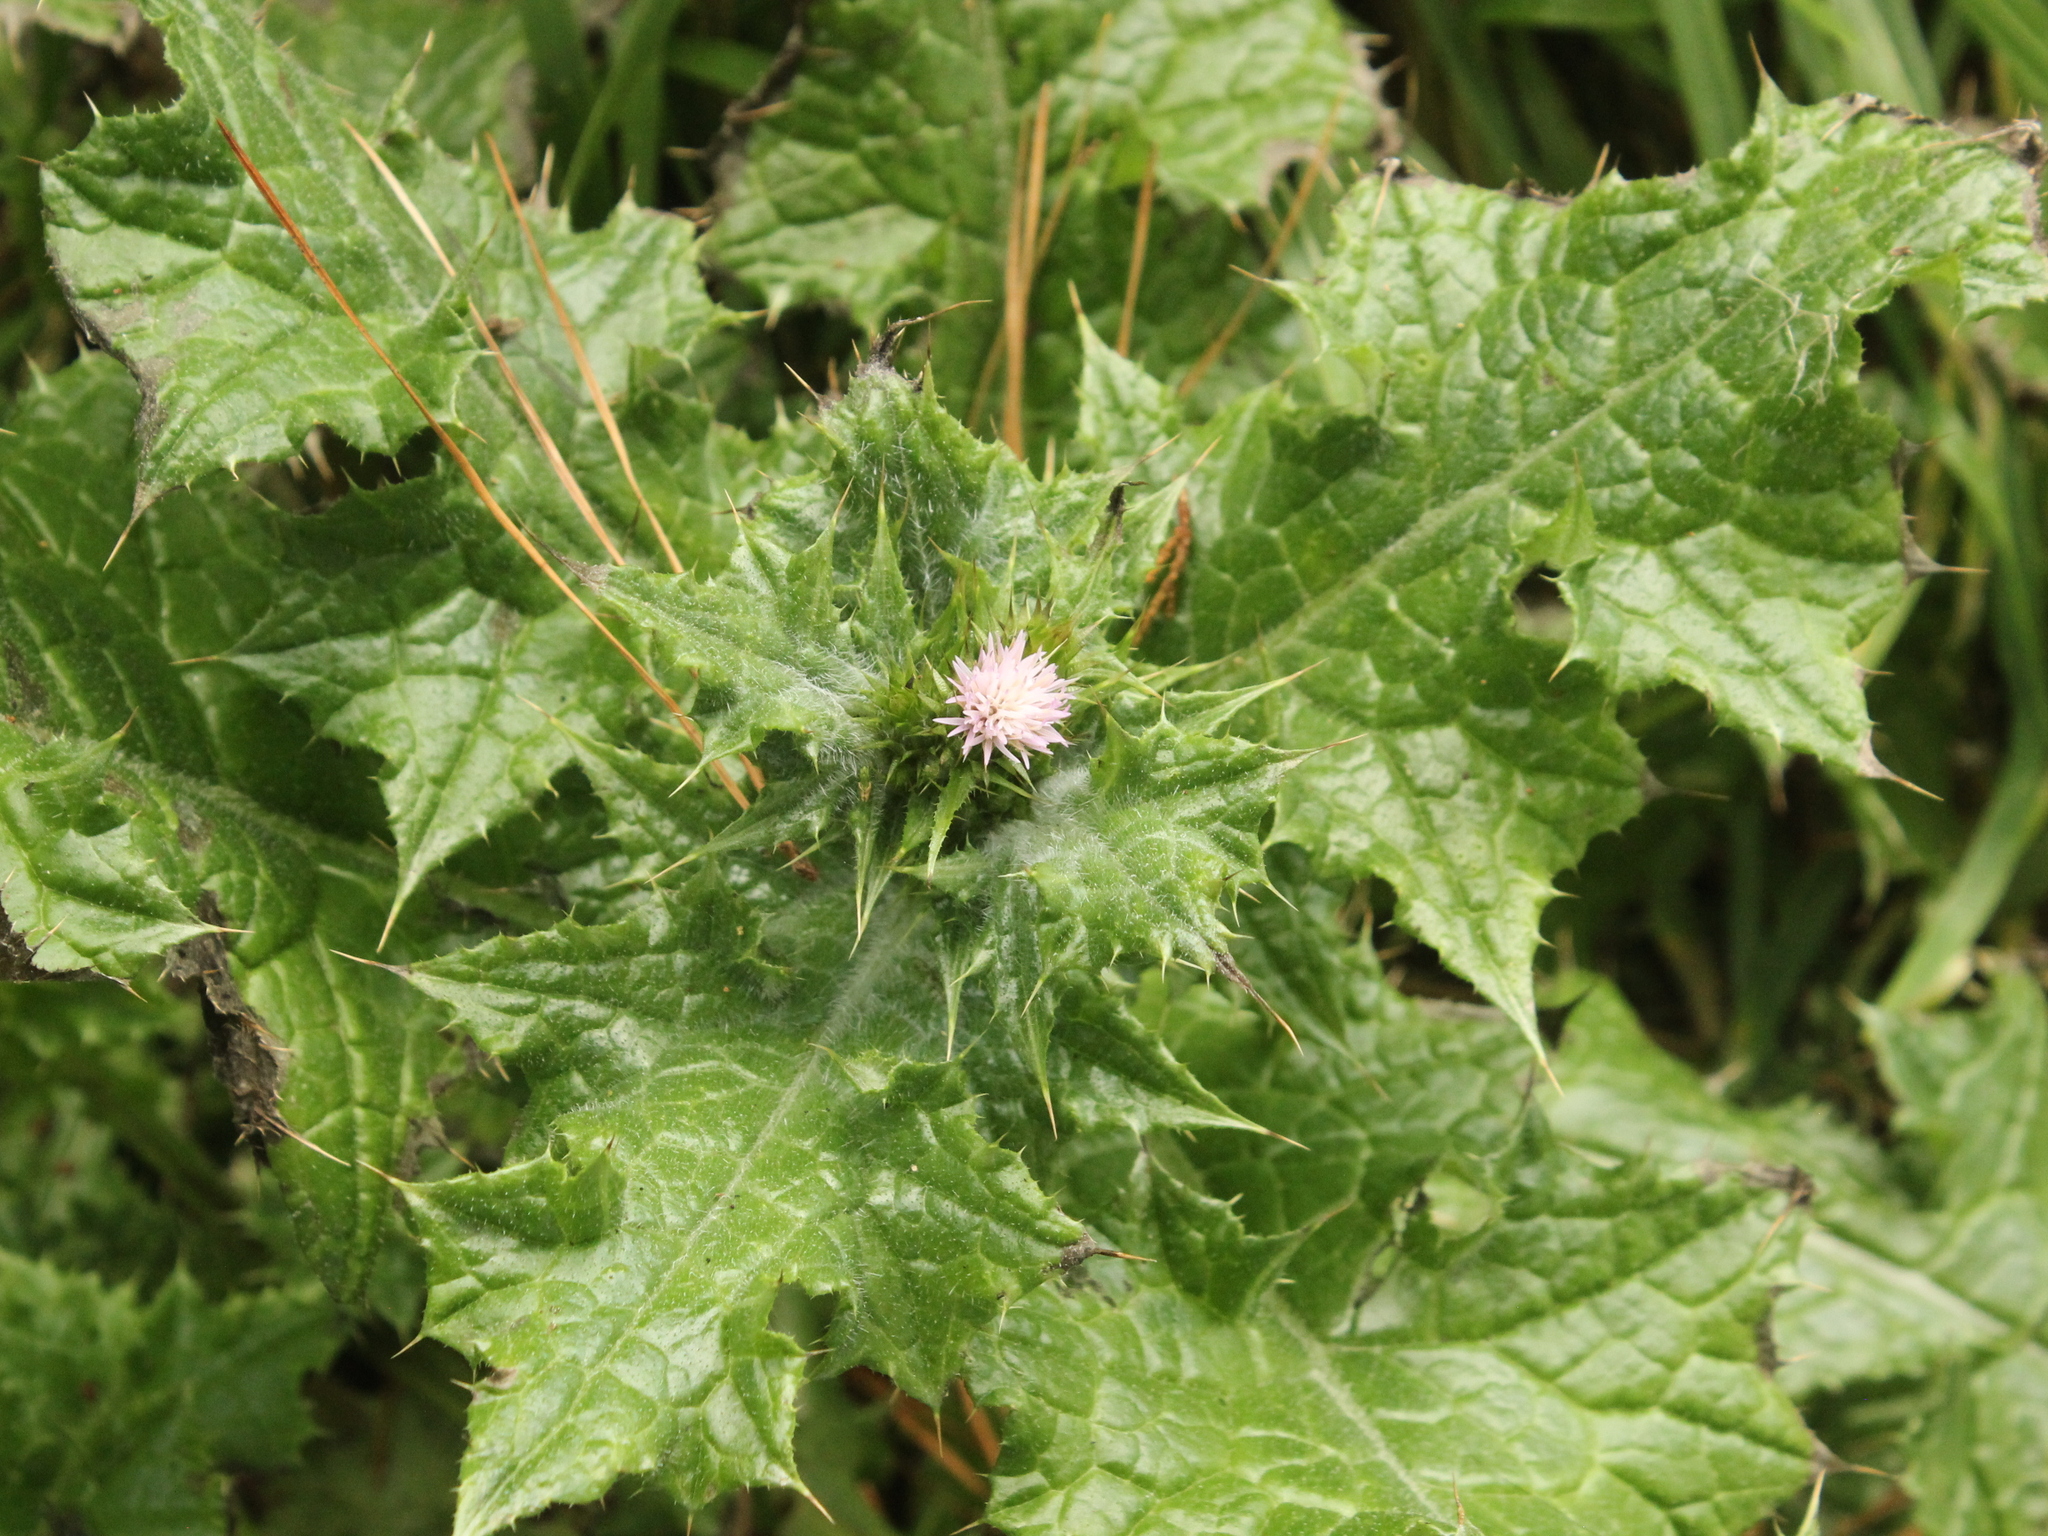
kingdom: Plantae
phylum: Tracheophyta
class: Magnoliopsida
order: Asterales
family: Asteraceae
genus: Carduus
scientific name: Carduus tenuiflorus
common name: Slender thistle
